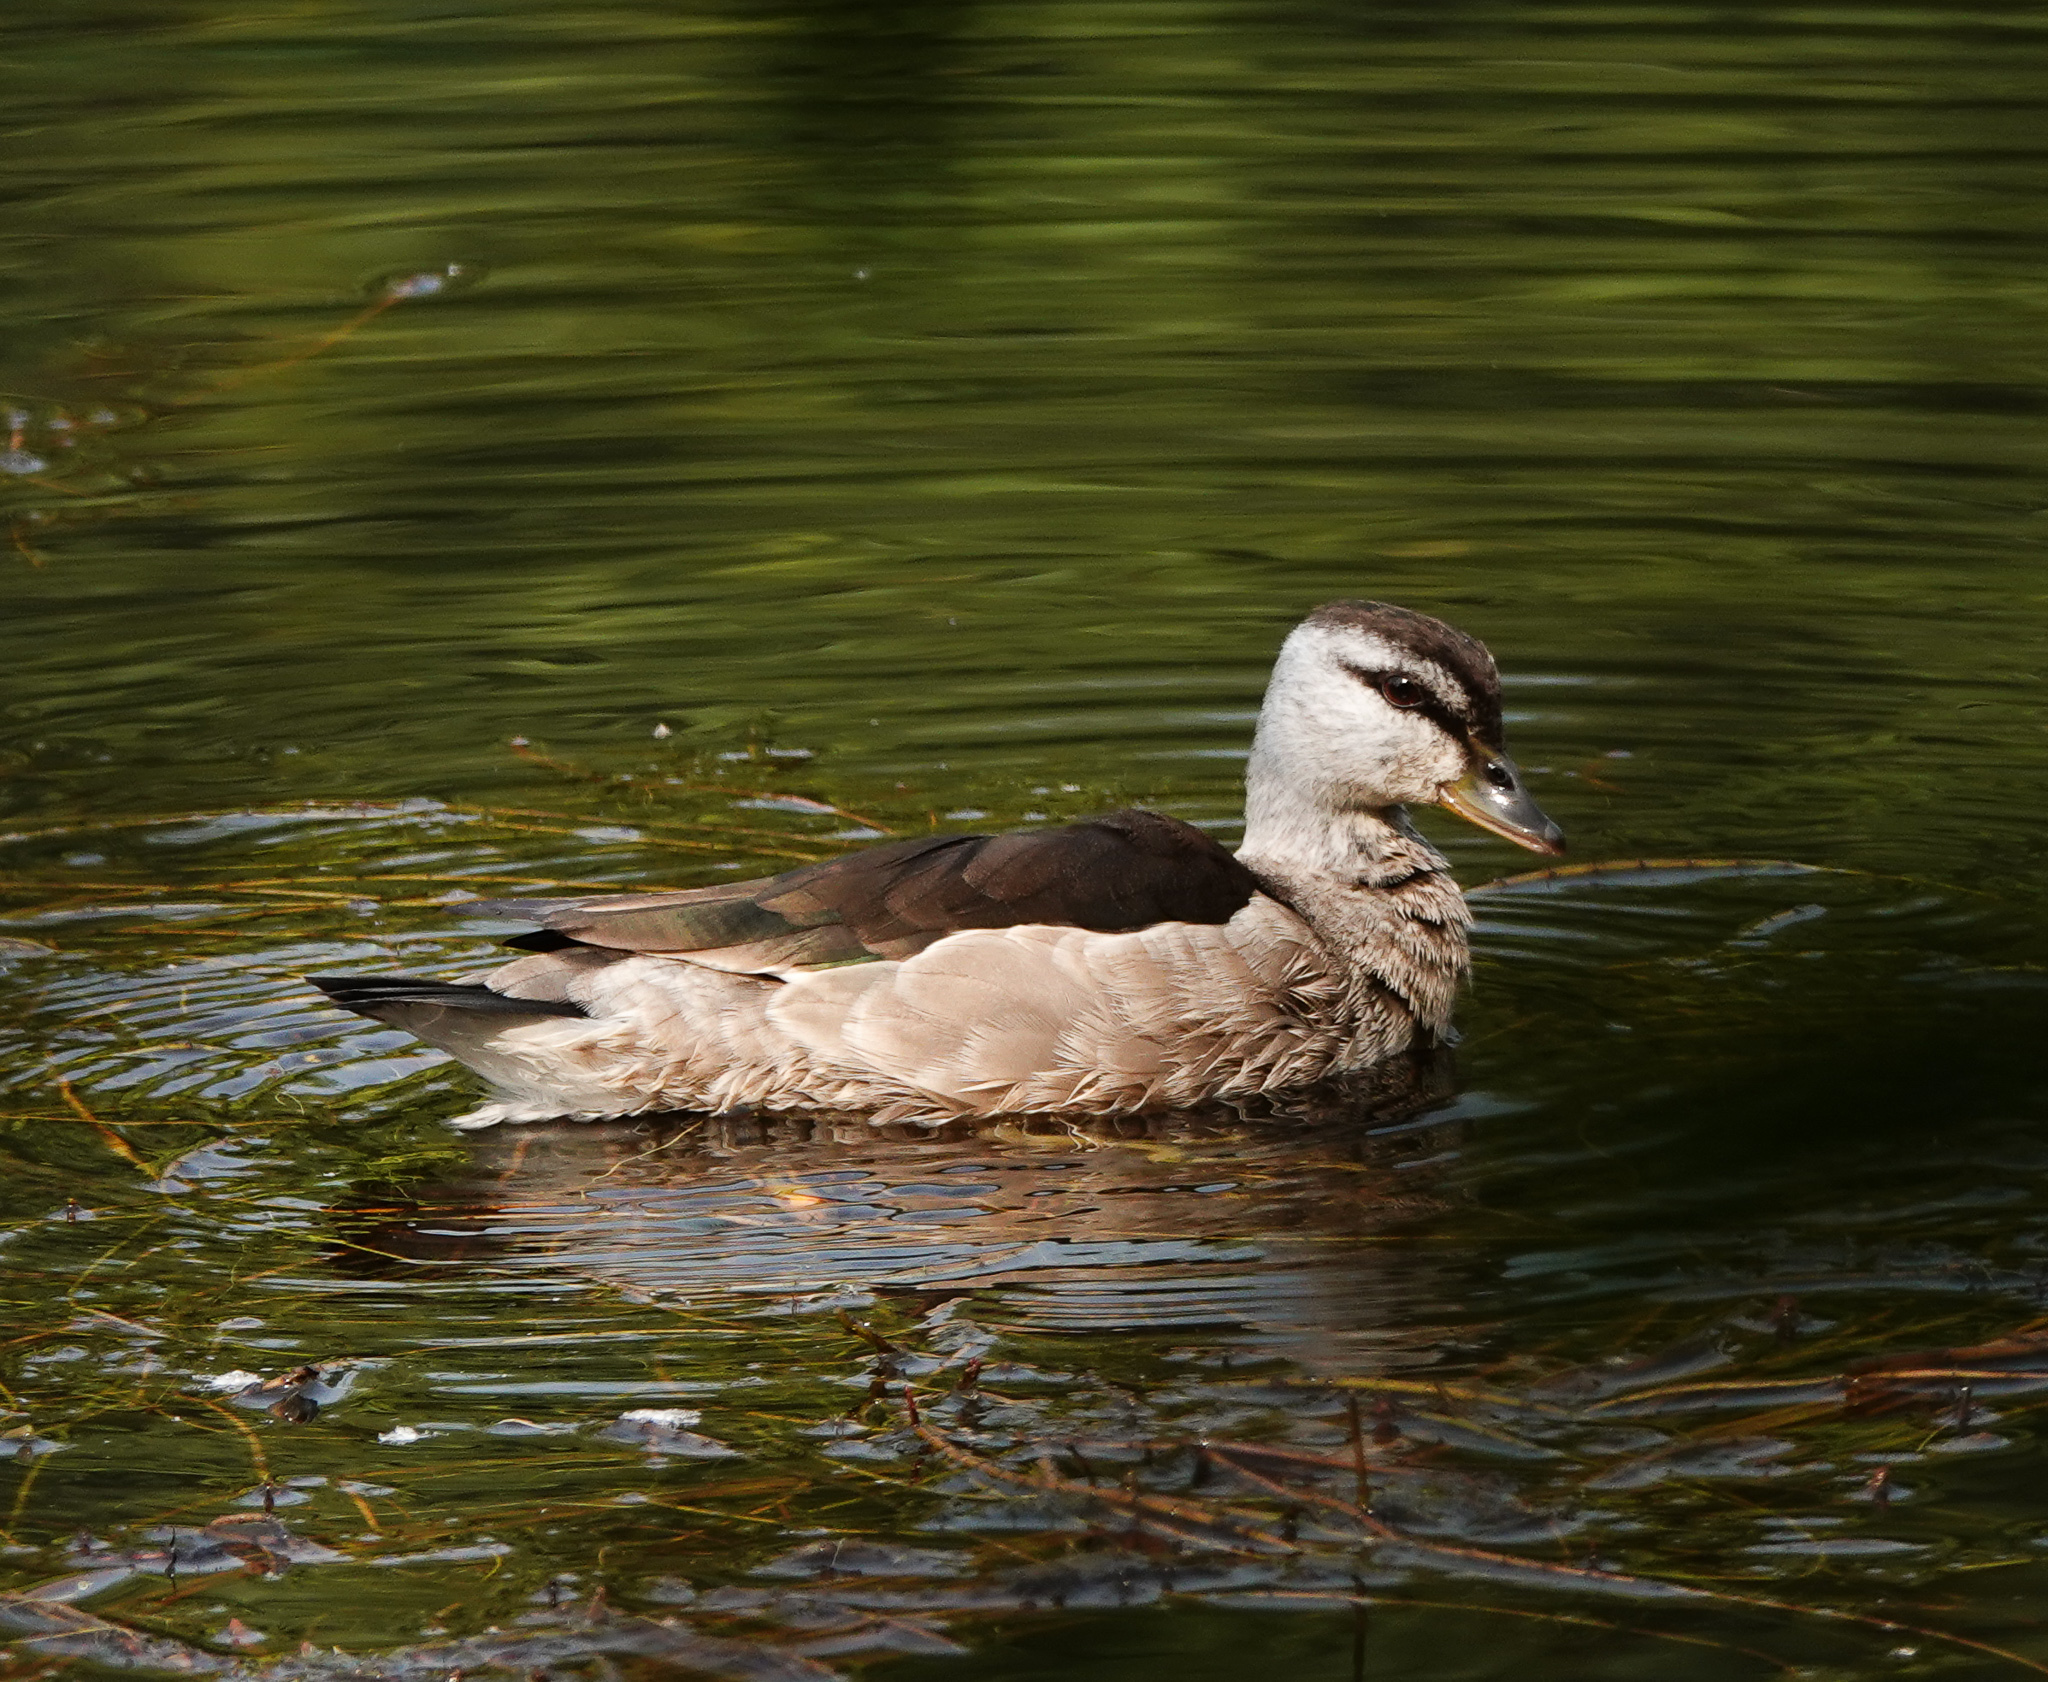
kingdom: Animalia
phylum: Chordata
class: Aves
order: Anseriformes
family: Anatidae
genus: Nettapus
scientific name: Nettapus coromandelianus
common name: Cotton pygmy-goose
